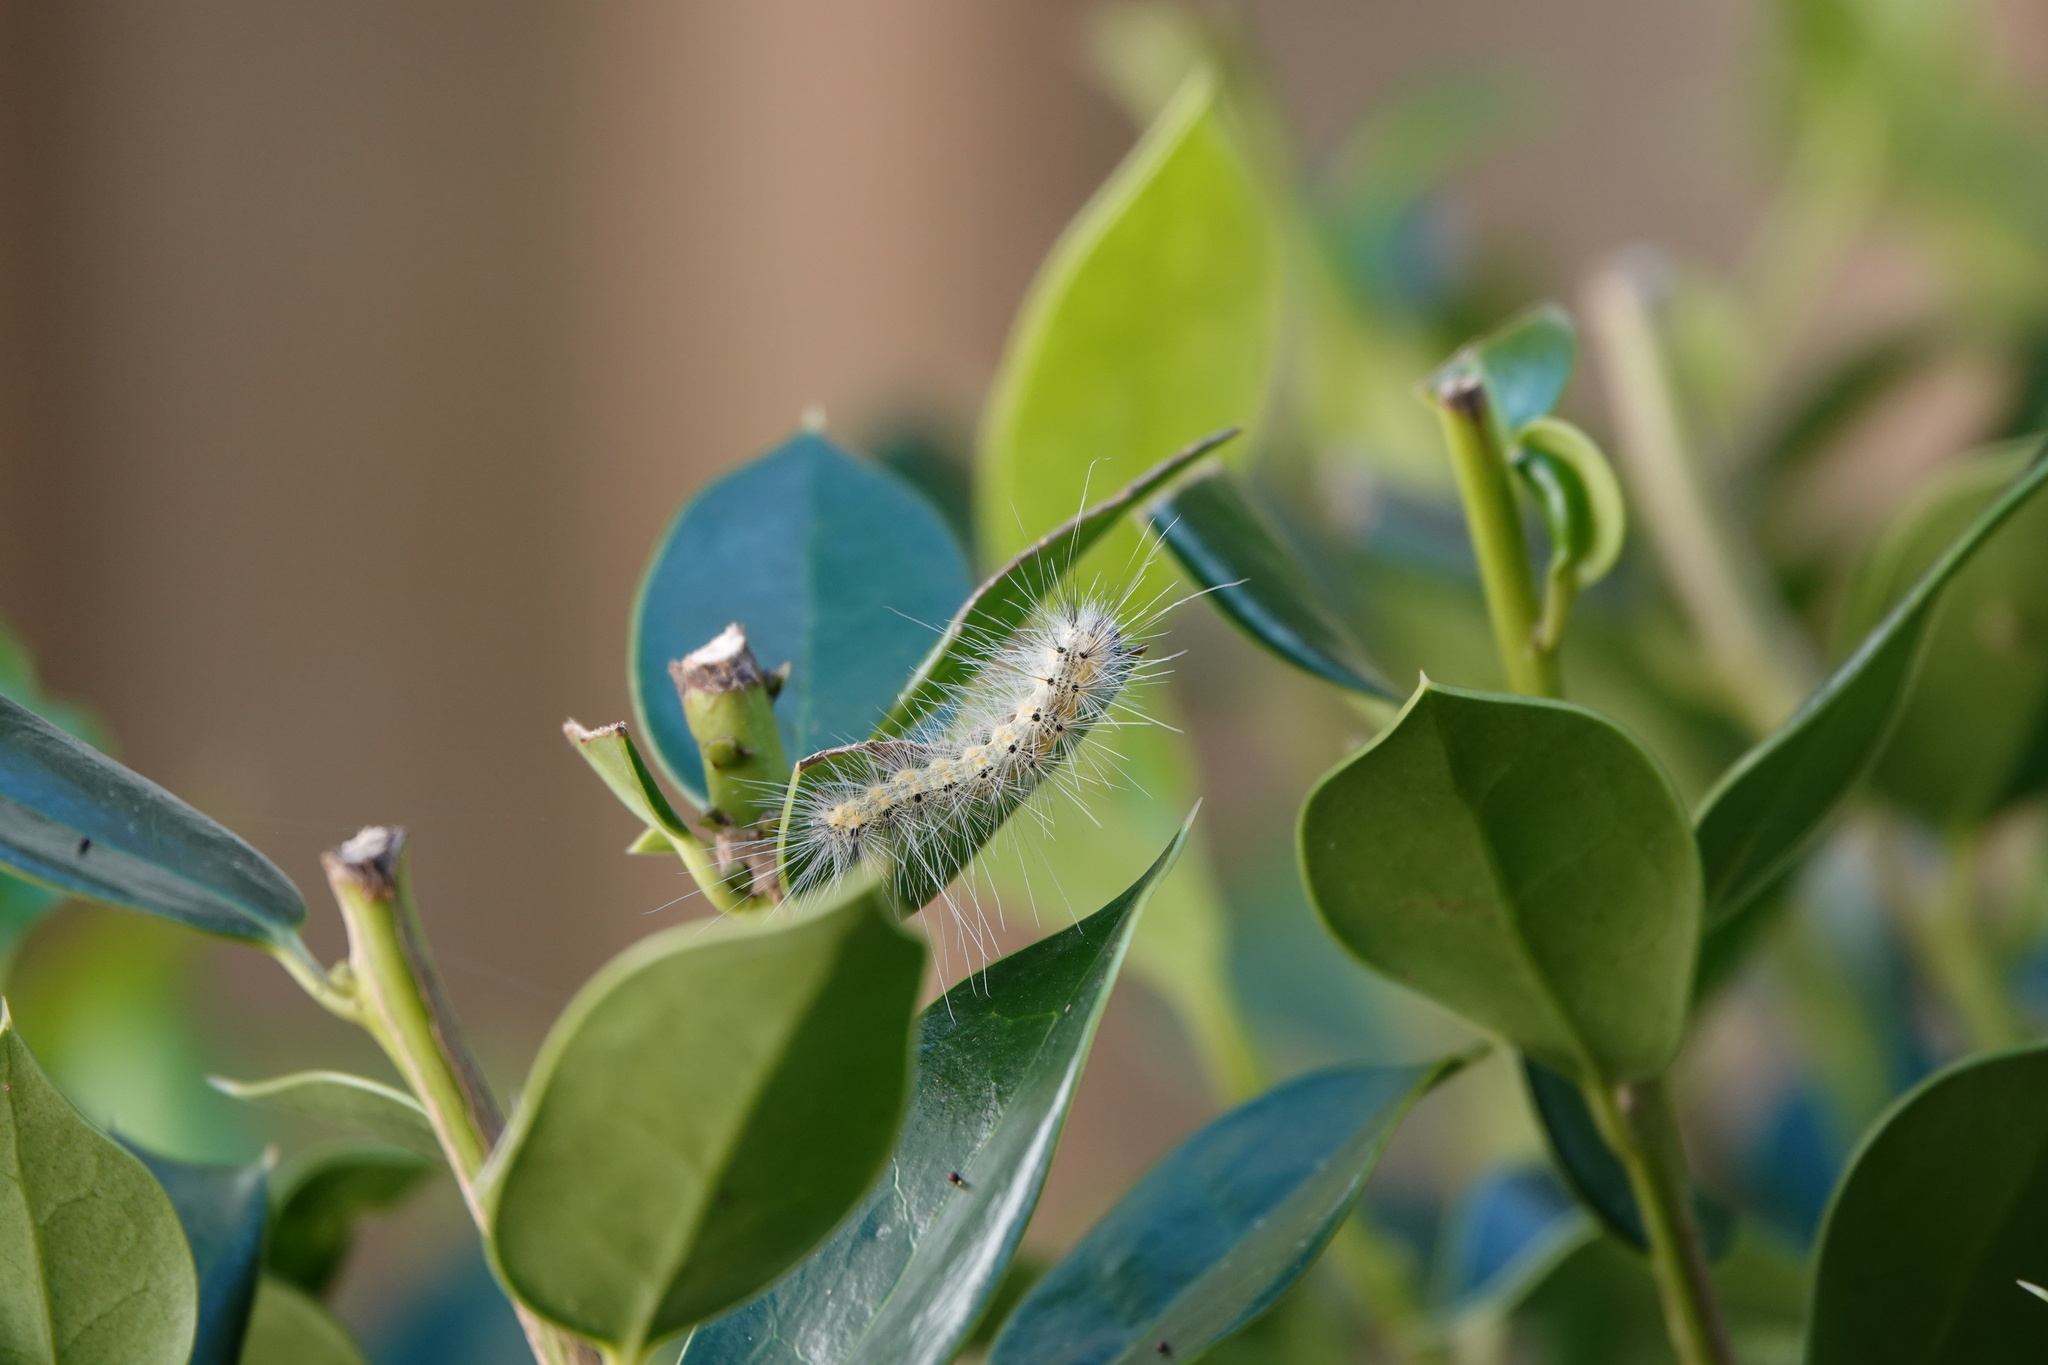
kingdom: Animalia
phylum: Arthropoda
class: Insecta
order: Lepidoptera
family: Erebidae
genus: Hyphantria
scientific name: Hyphantria cunea
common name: American white moth
